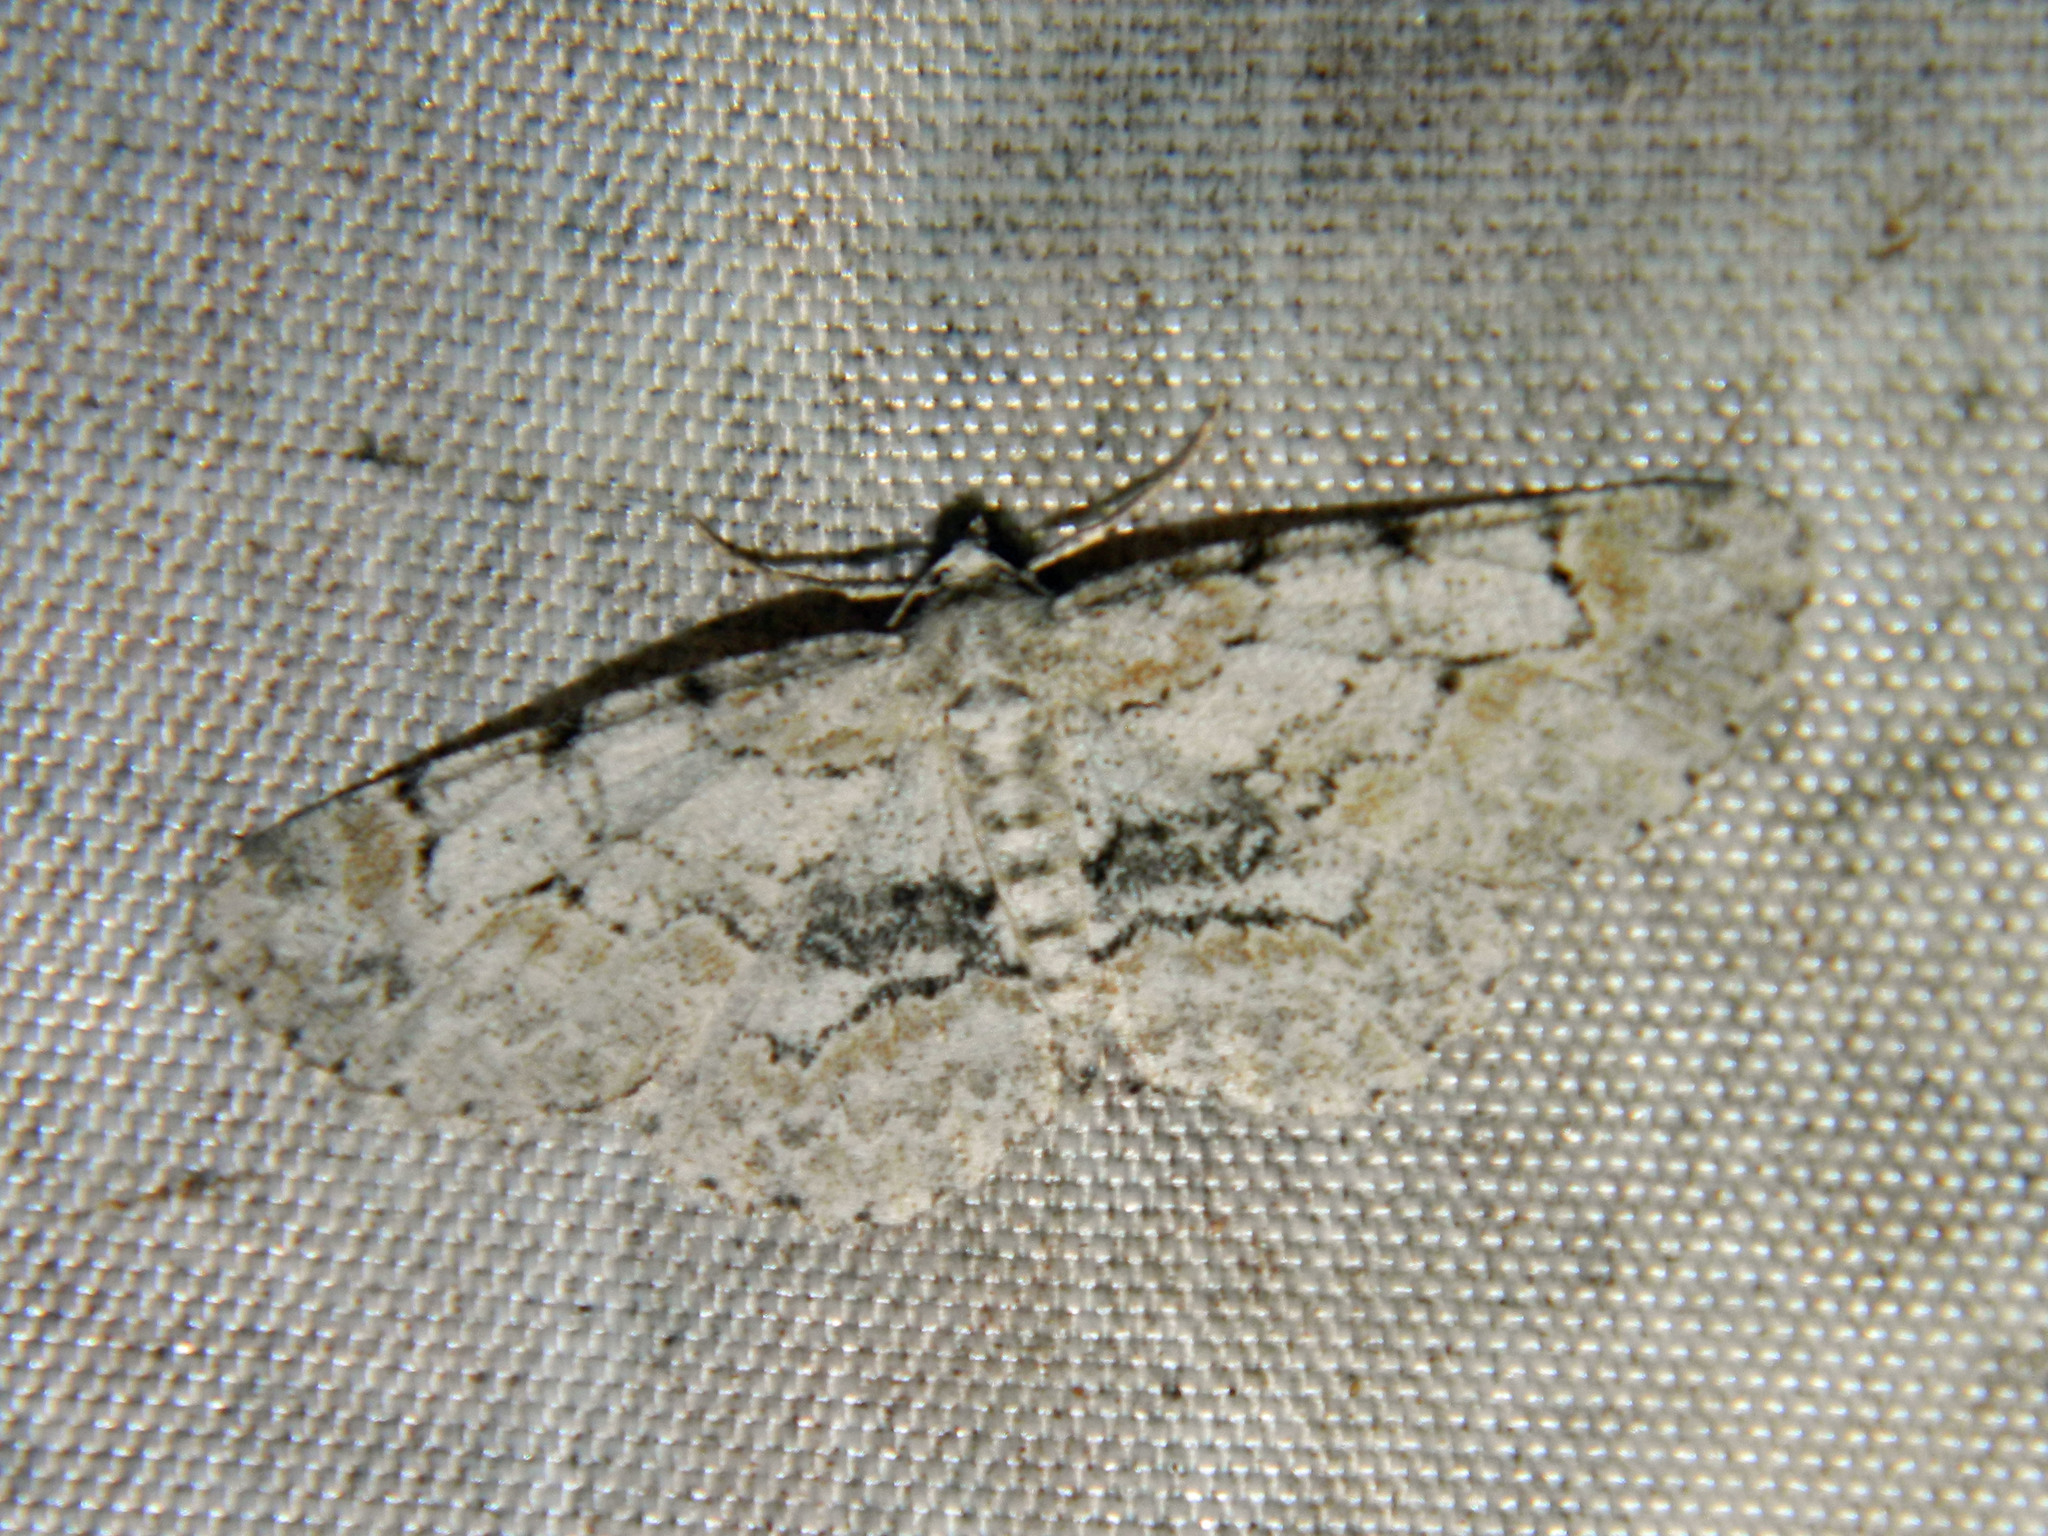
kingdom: Animalia
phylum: Arthropoda
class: Insecta
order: Lepidoptera
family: Geometridae
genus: Iridopsis
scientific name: Iridopsis ephyraria
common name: Pale-winged gray
